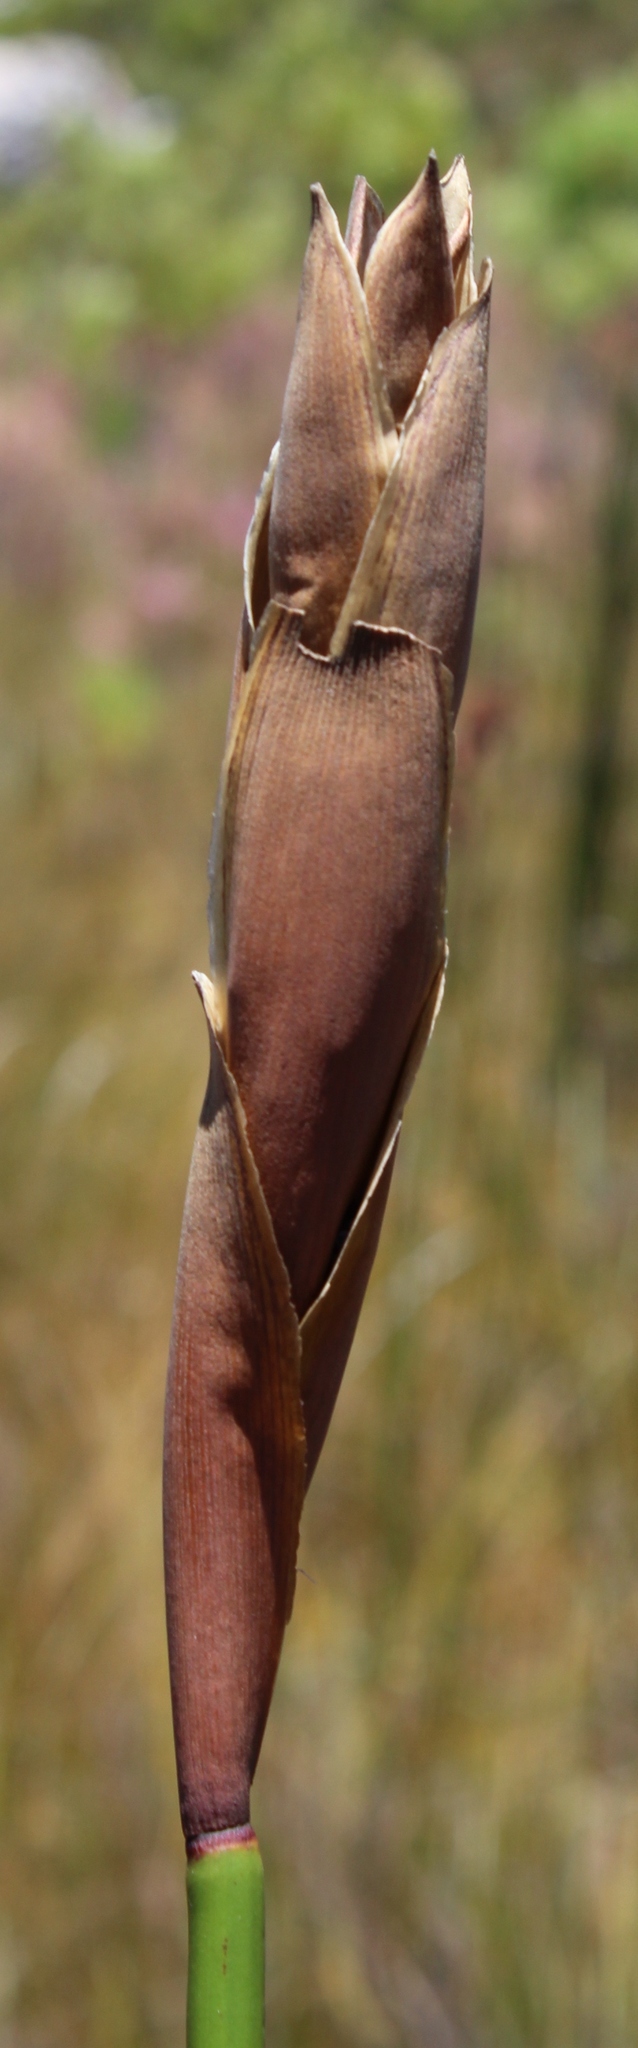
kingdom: Plantae
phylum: Tracheophyta
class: Liliopsida
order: Poales
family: Restionaceae
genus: Elegia
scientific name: Elegia mucronata
